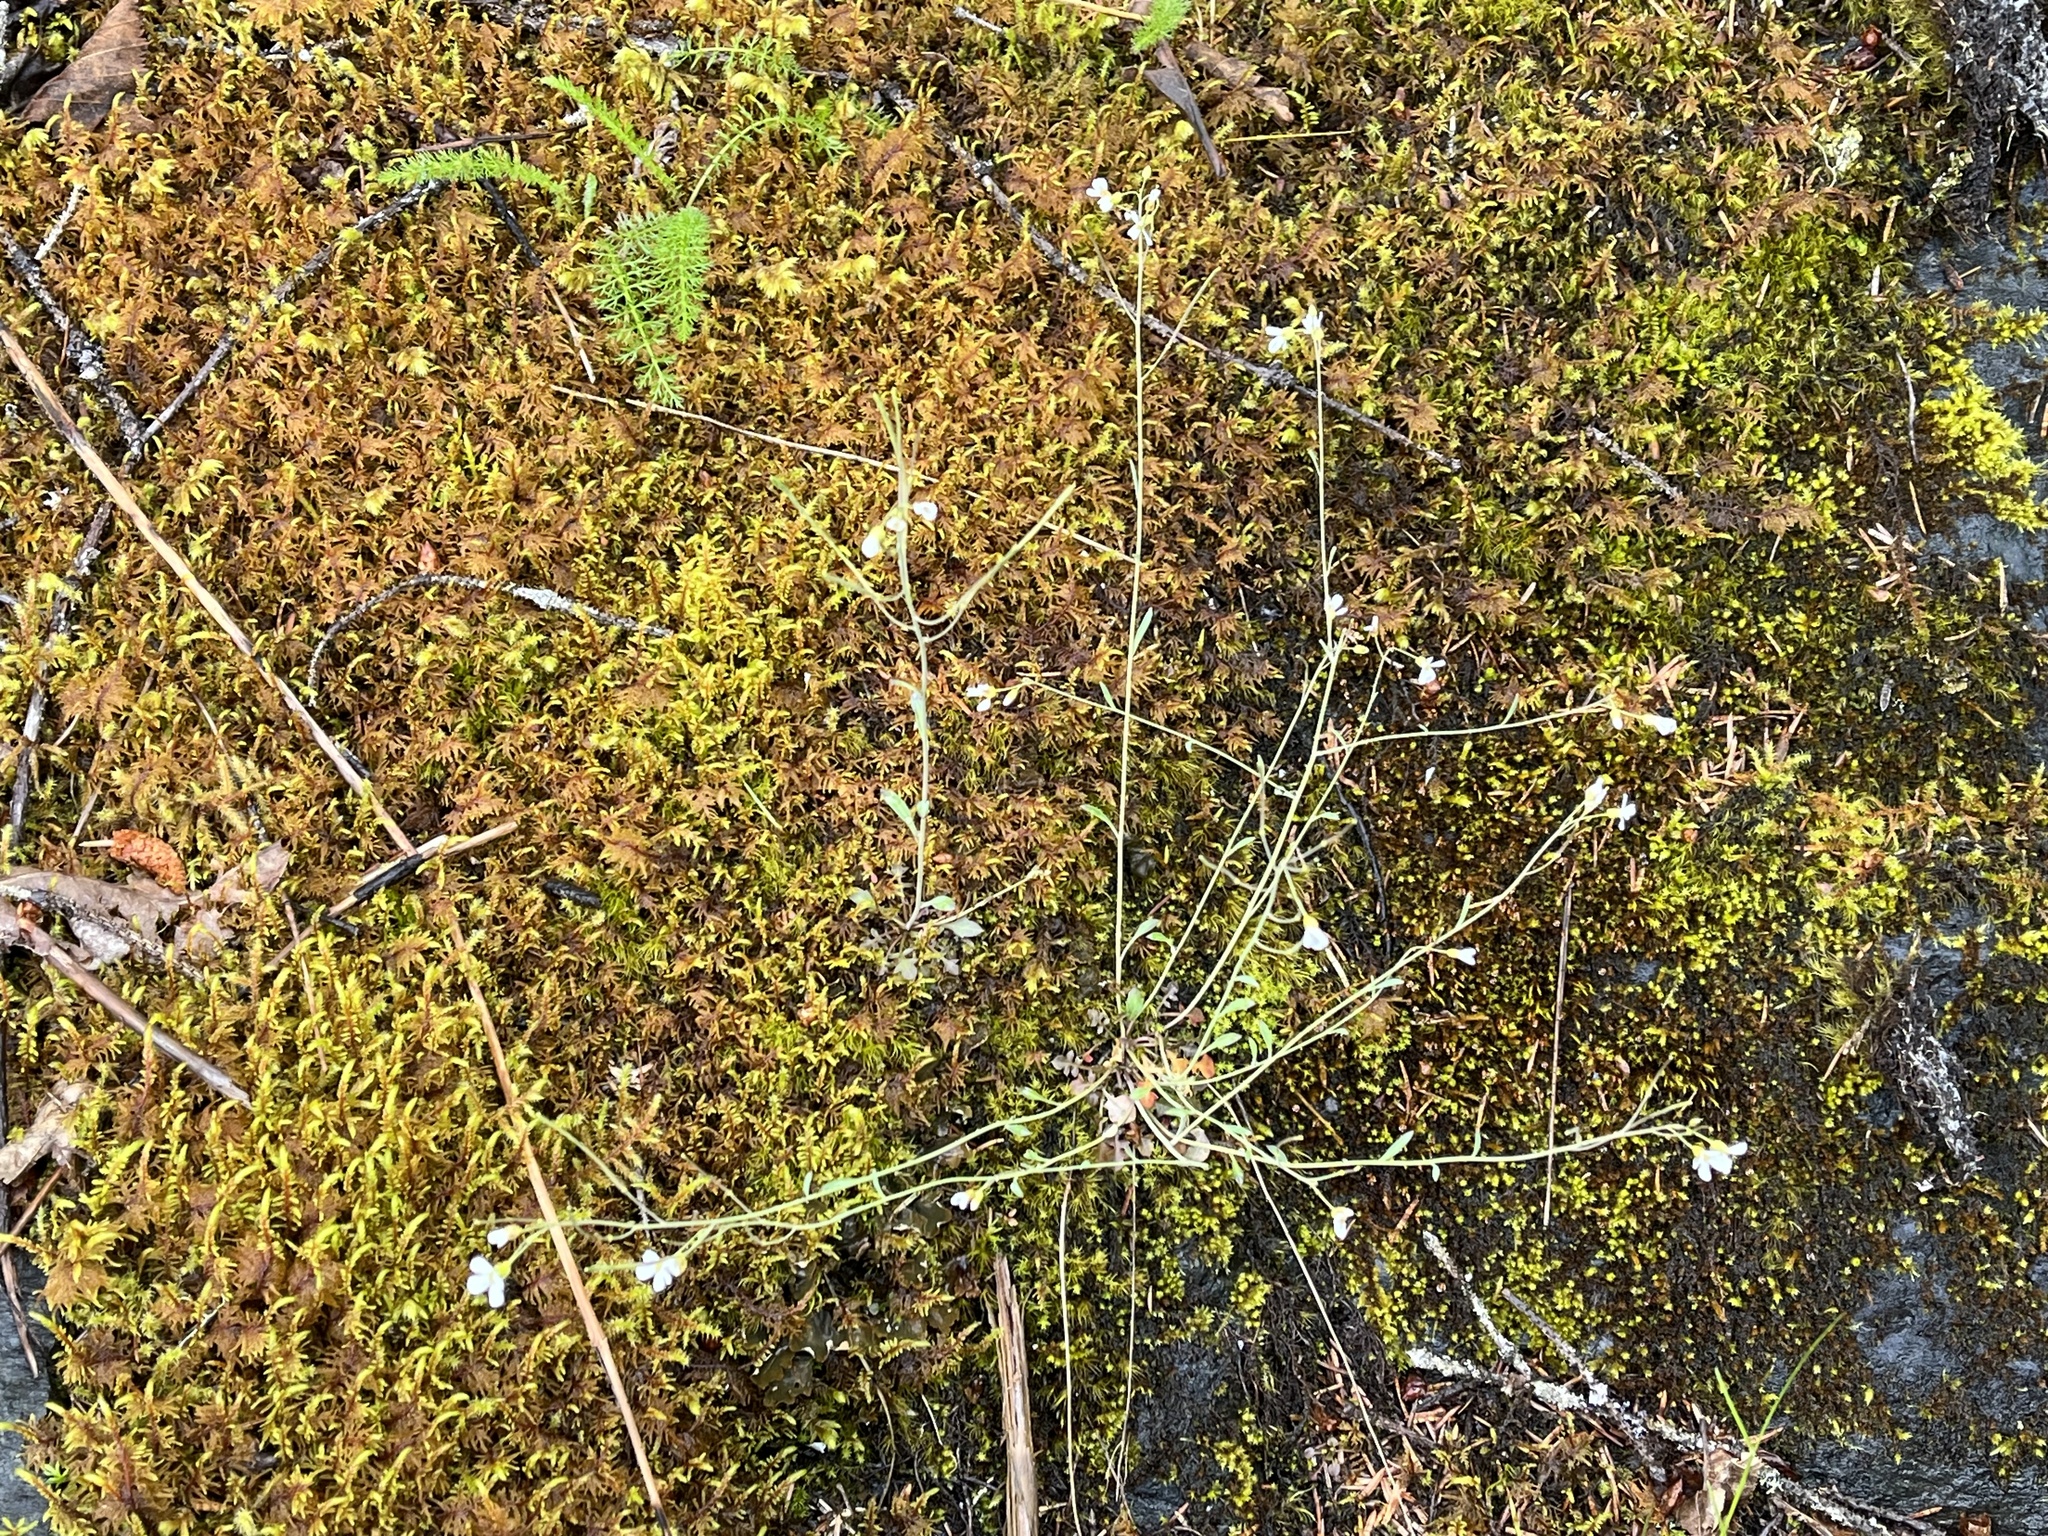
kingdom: Plantae
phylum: Tracheophyta
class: Magnoliopsida
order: Brassicales
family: Brassicaceae
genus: Arabidopsis
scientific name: Arabidopsis lyrata
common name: Lyrate rockcress
